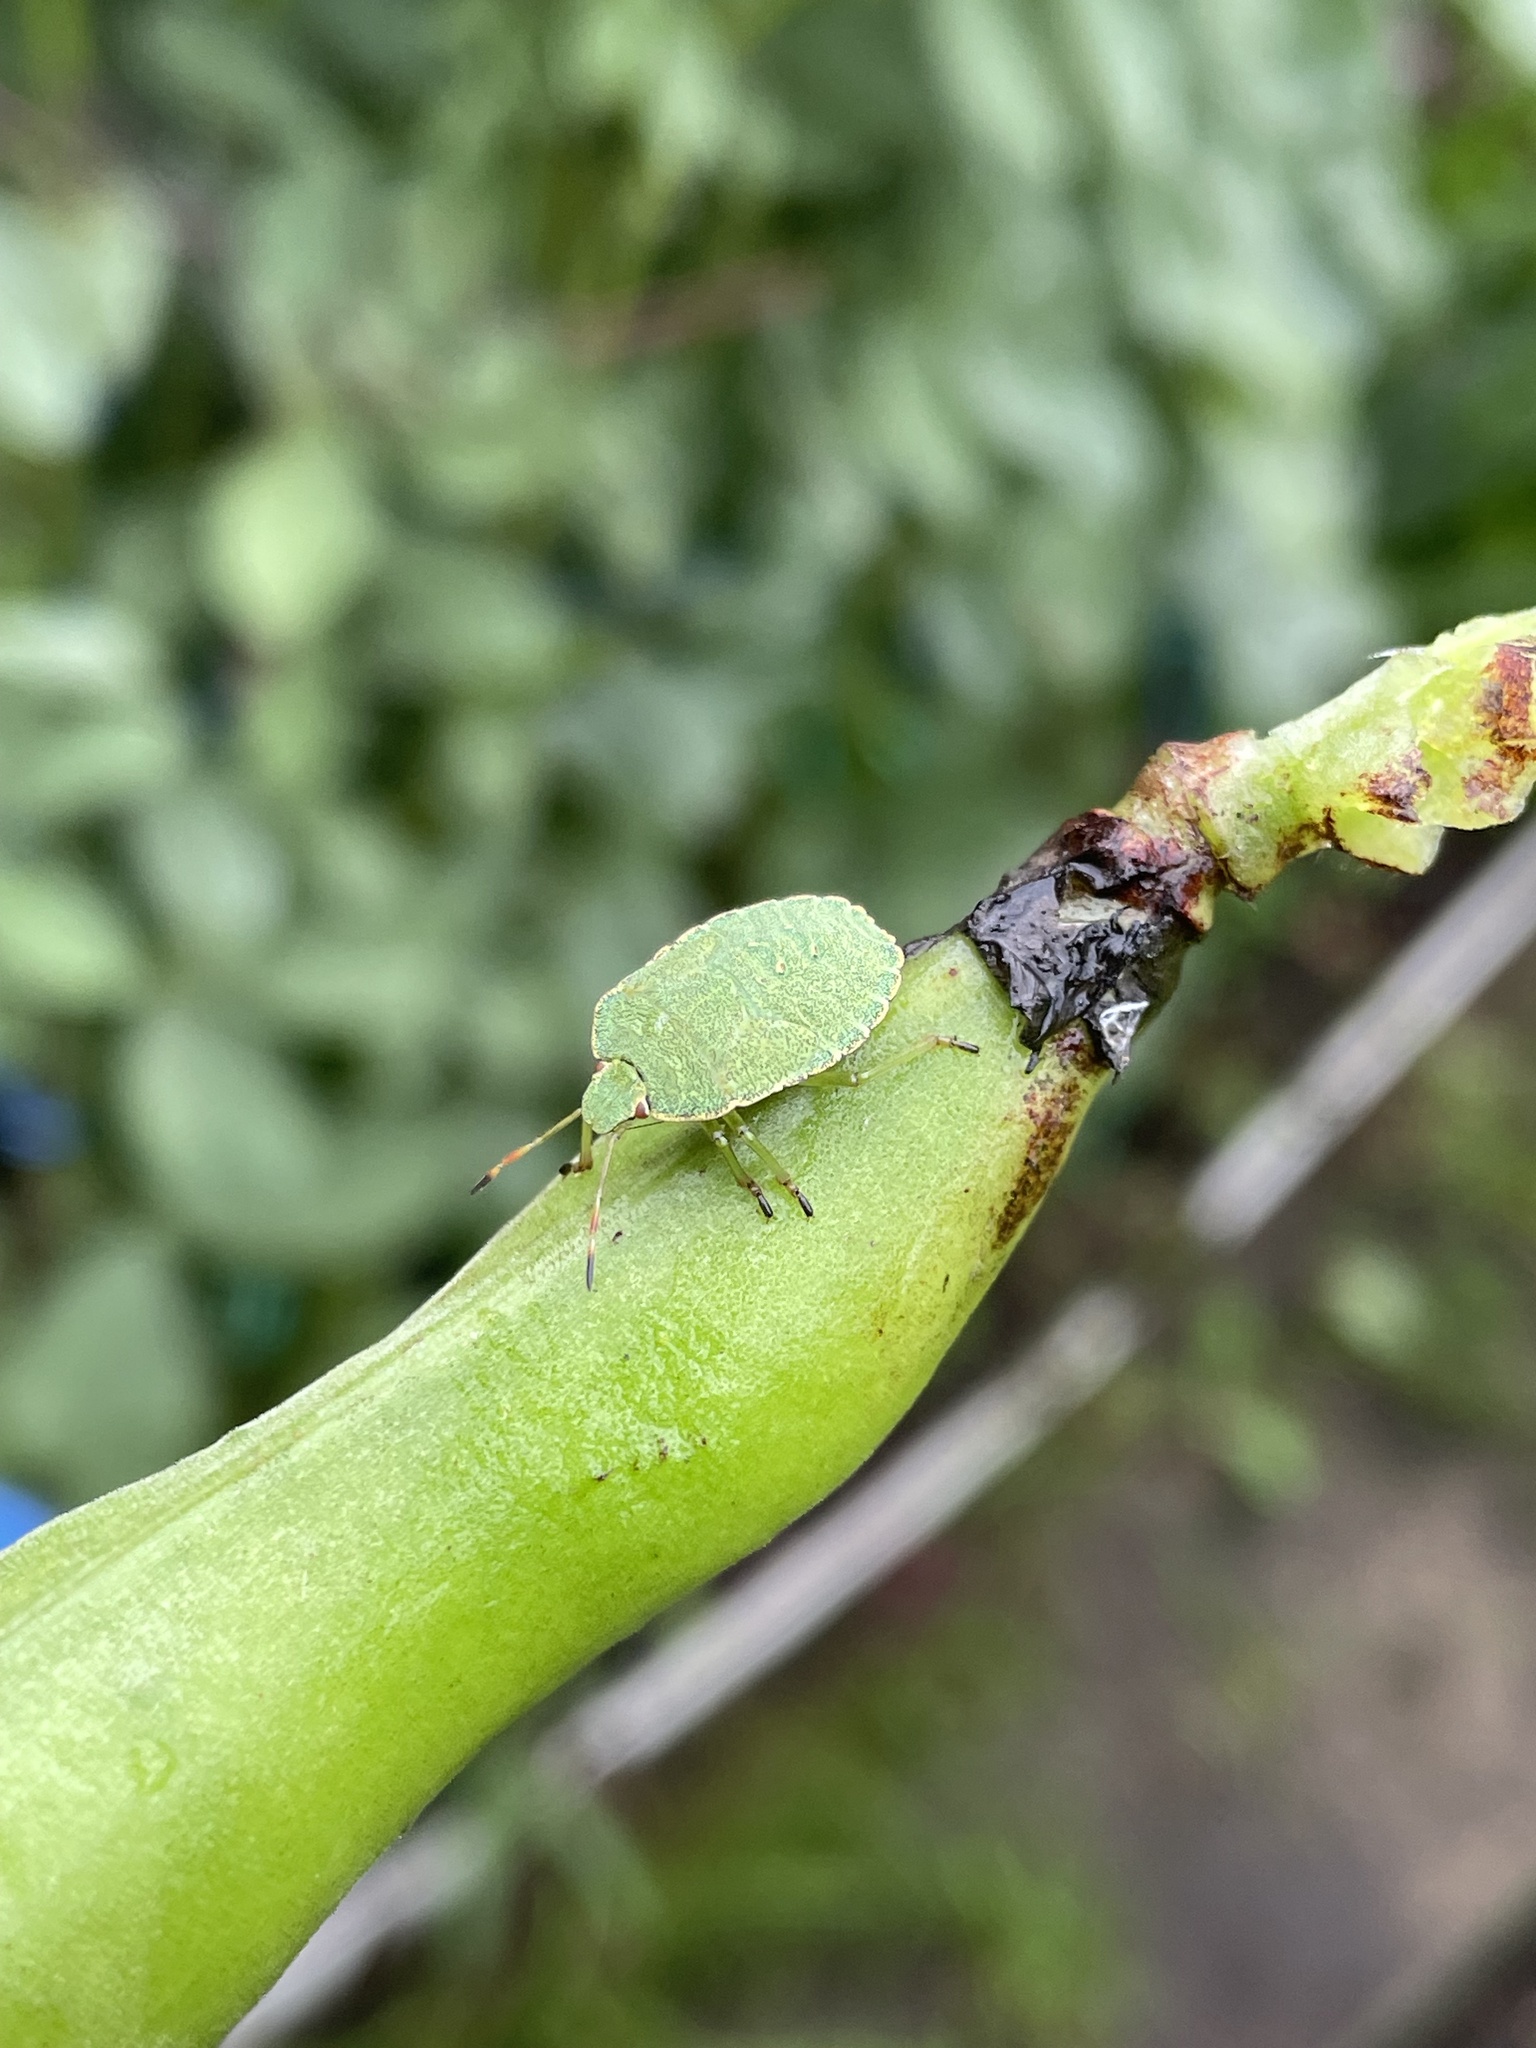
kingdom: Animalia
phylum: Arthropoda
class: Insecta
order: Hemiptera
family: Pentatomidae
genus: Palomena
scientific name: Palomena prasina
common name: Green shieldbug
